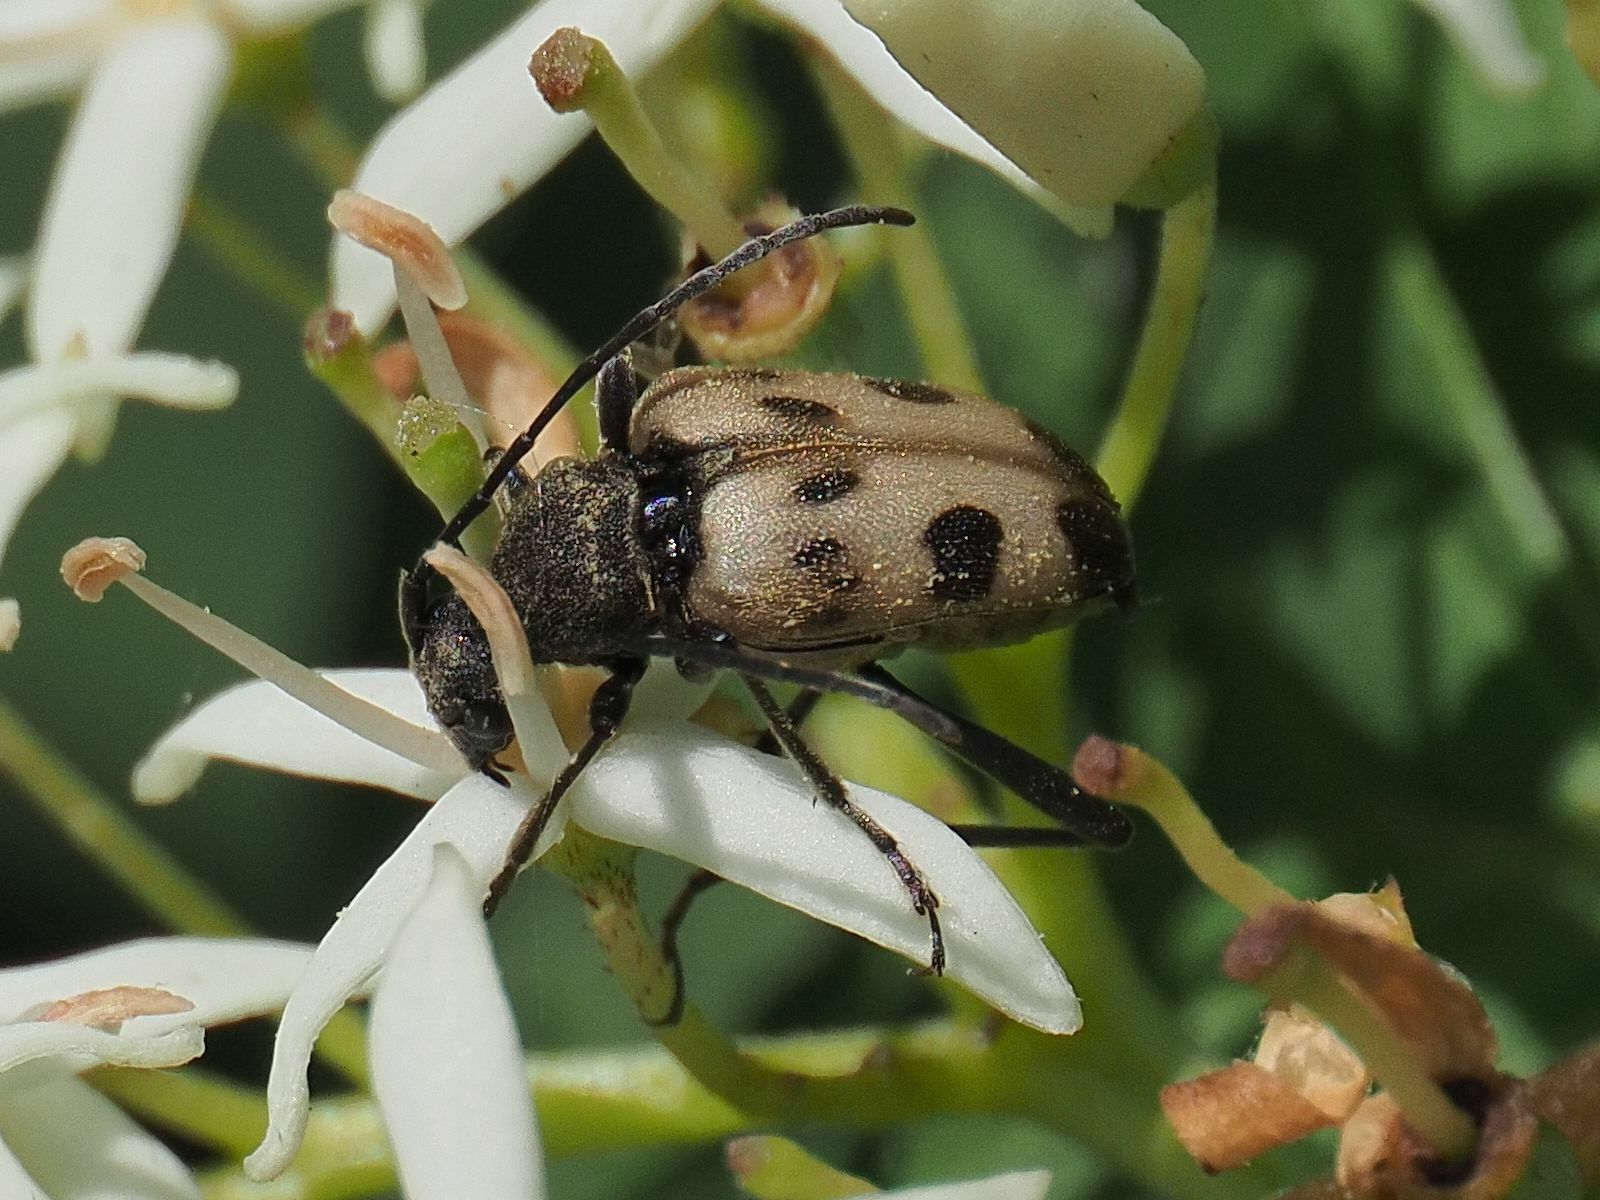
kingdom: Animalia
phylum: Arthropoda
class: Insecta
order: Coleoptera
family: Cerambycidae
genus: Pachytodes
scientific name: Pachytodes cerambyciformis
